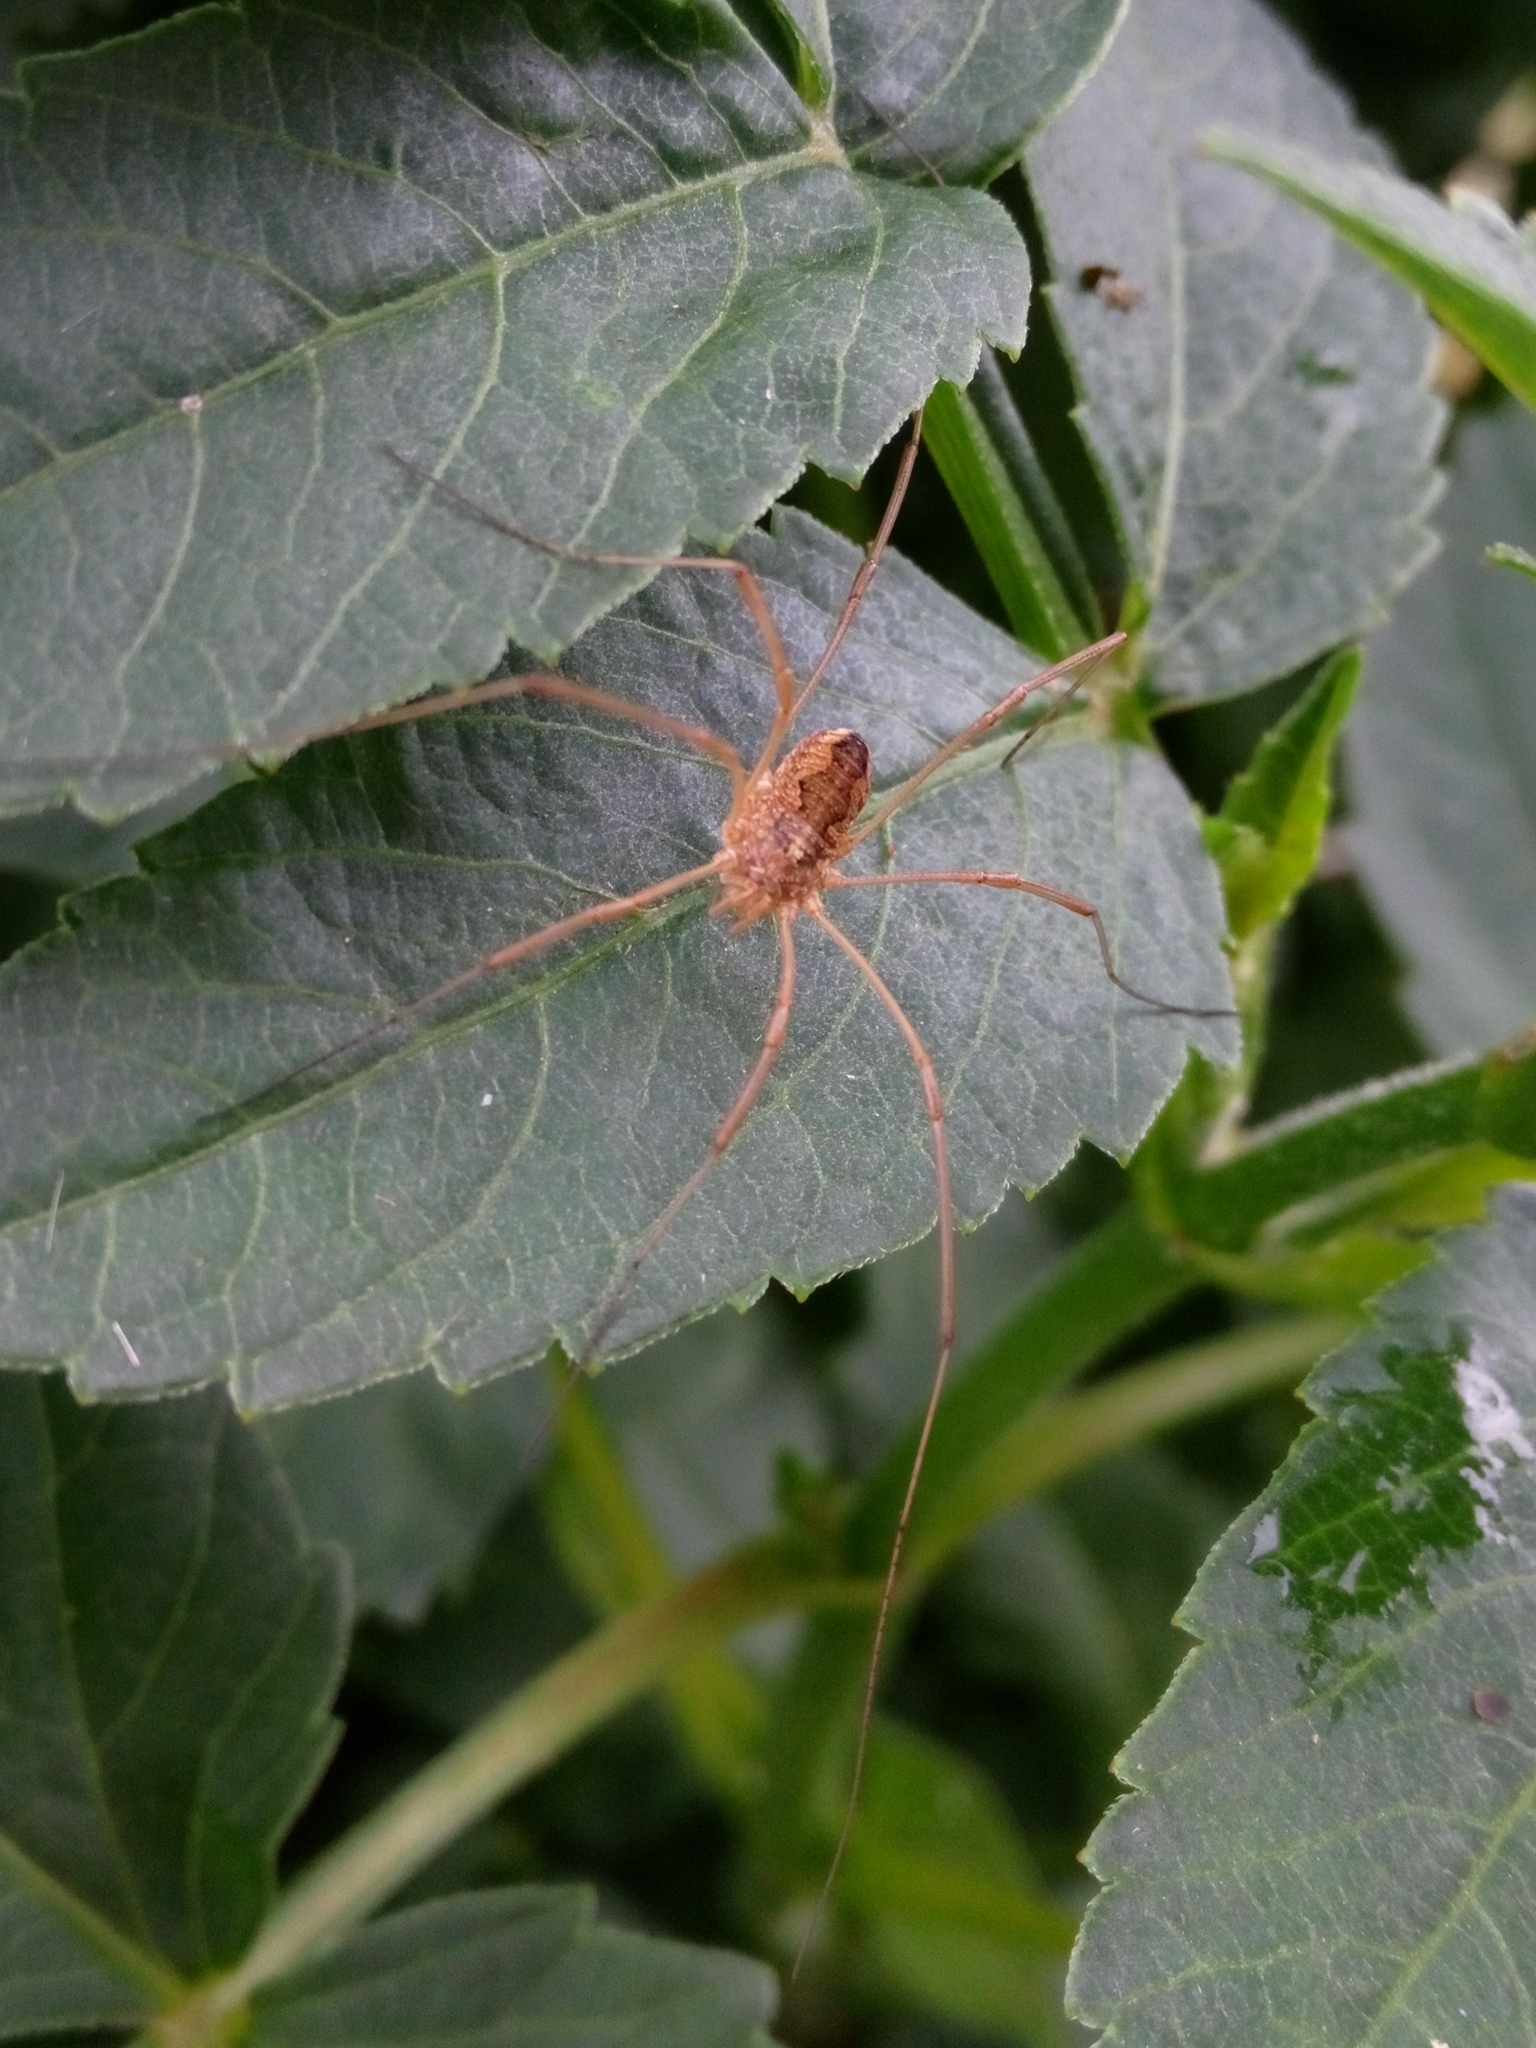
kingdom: Animalia
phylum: Arthropoda
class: Arachnida
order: Opiliones
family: Phalangiidae
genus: Phalangium
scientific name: Phalangium opilio
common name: Daddy longleg
